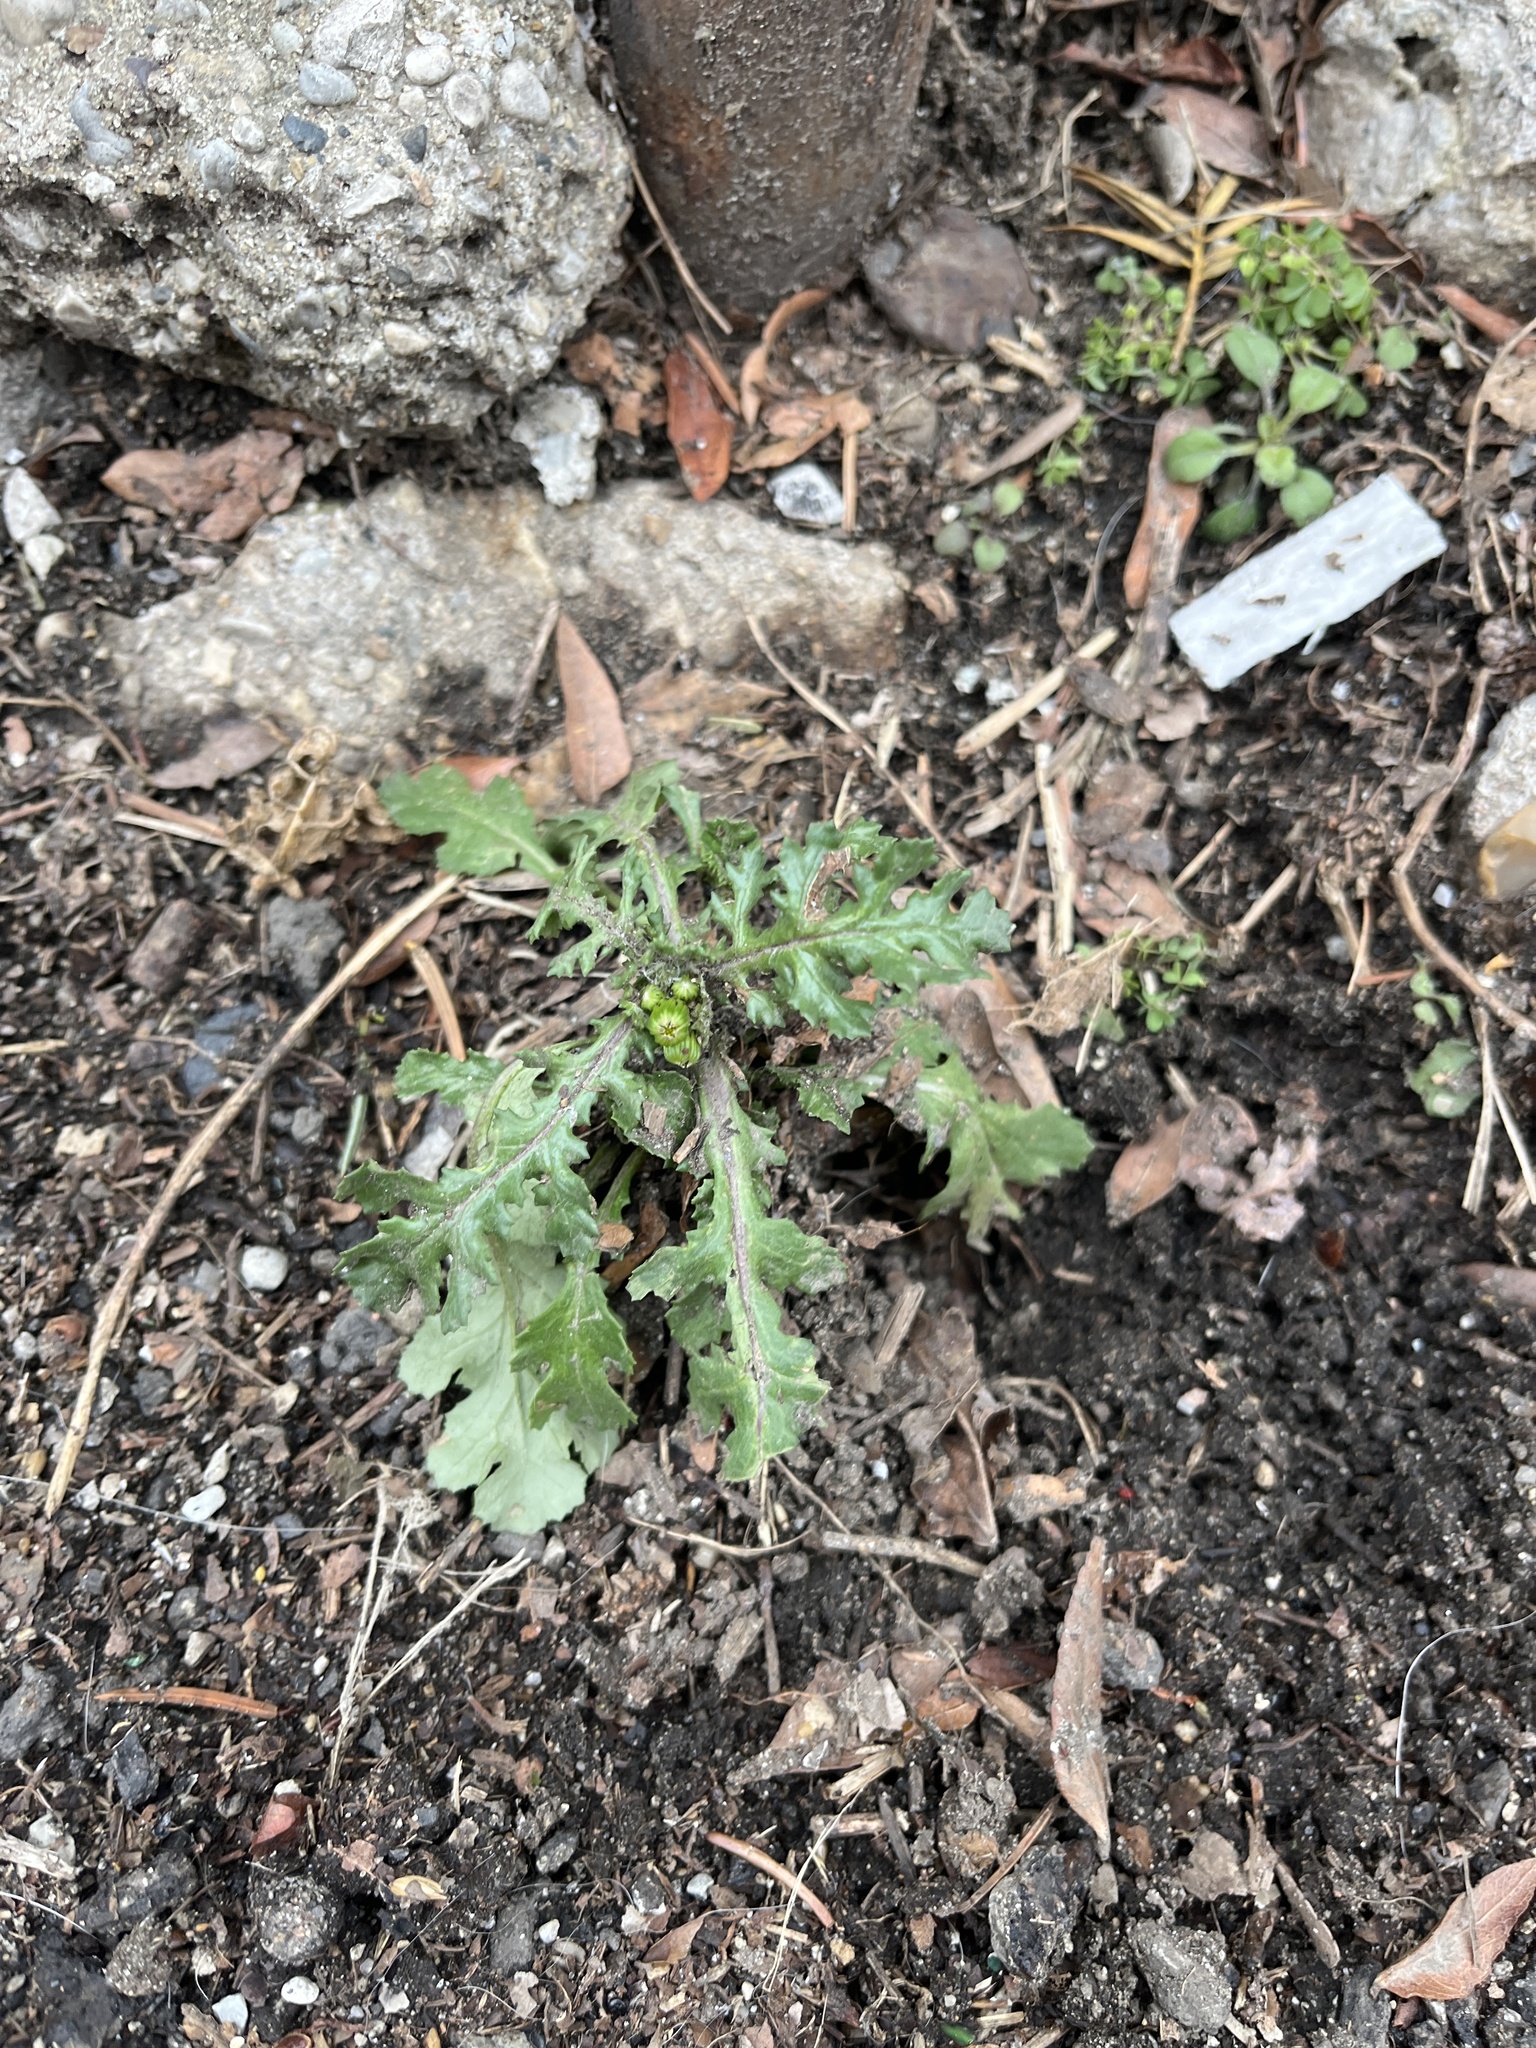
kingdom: Plantae
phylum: Tracheophyta
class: Magnoliopsida
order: Asterales
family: Asteraceae
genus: Senecio
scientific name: Senecio vulgaris
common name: Old-man-in-the-spring
